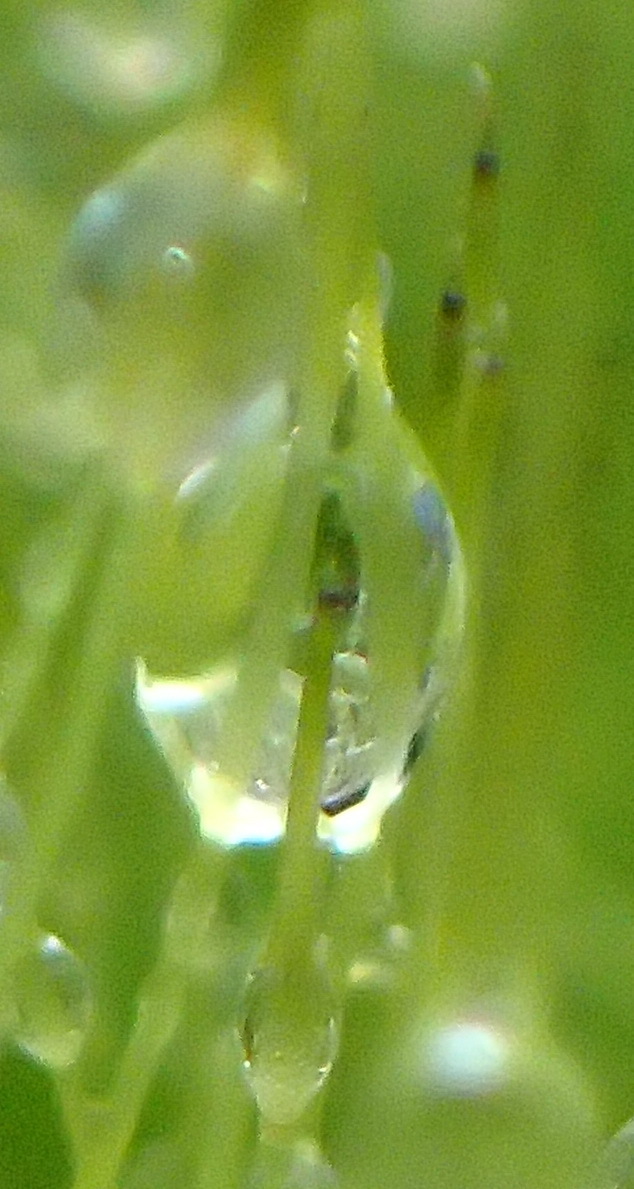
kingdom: Plantae
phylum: Bryophyta
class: Bryopsida
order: Dicranales
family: Ditrichaceae
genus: Ceratodon
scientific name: Ceratodon purpureus
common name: Redshank
